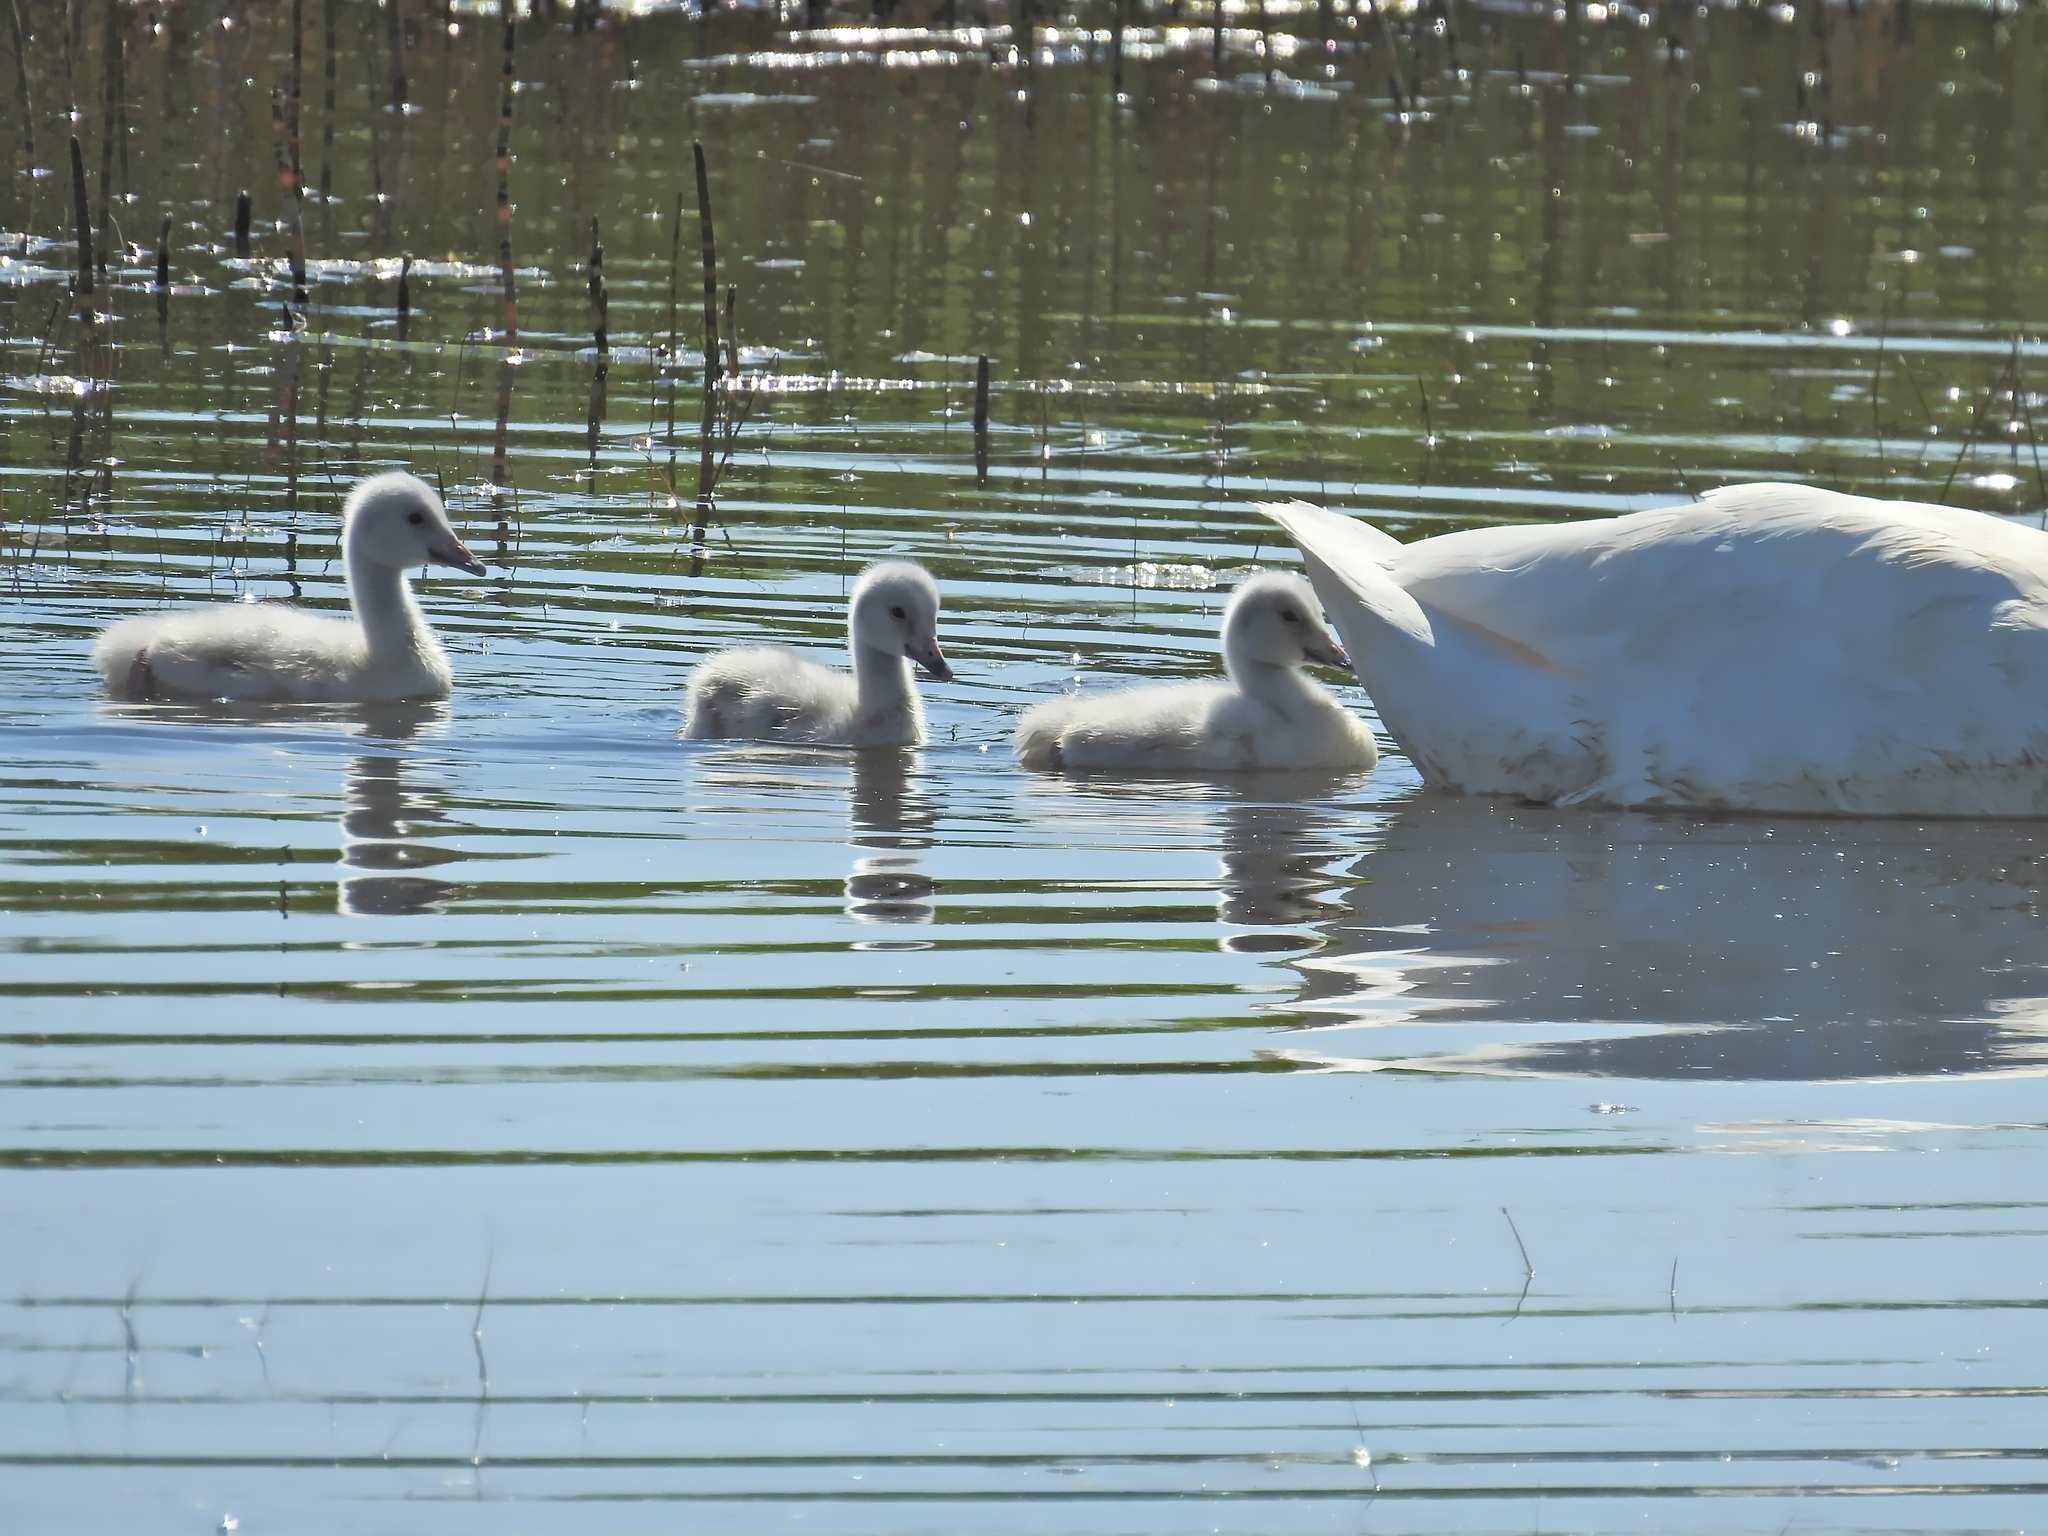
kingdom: Animalia
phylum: Chordata
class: Aves
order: Anseriformes
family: Anatidae
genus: Cygnus
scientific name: Cygnus cygnus
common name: Whooper swan
